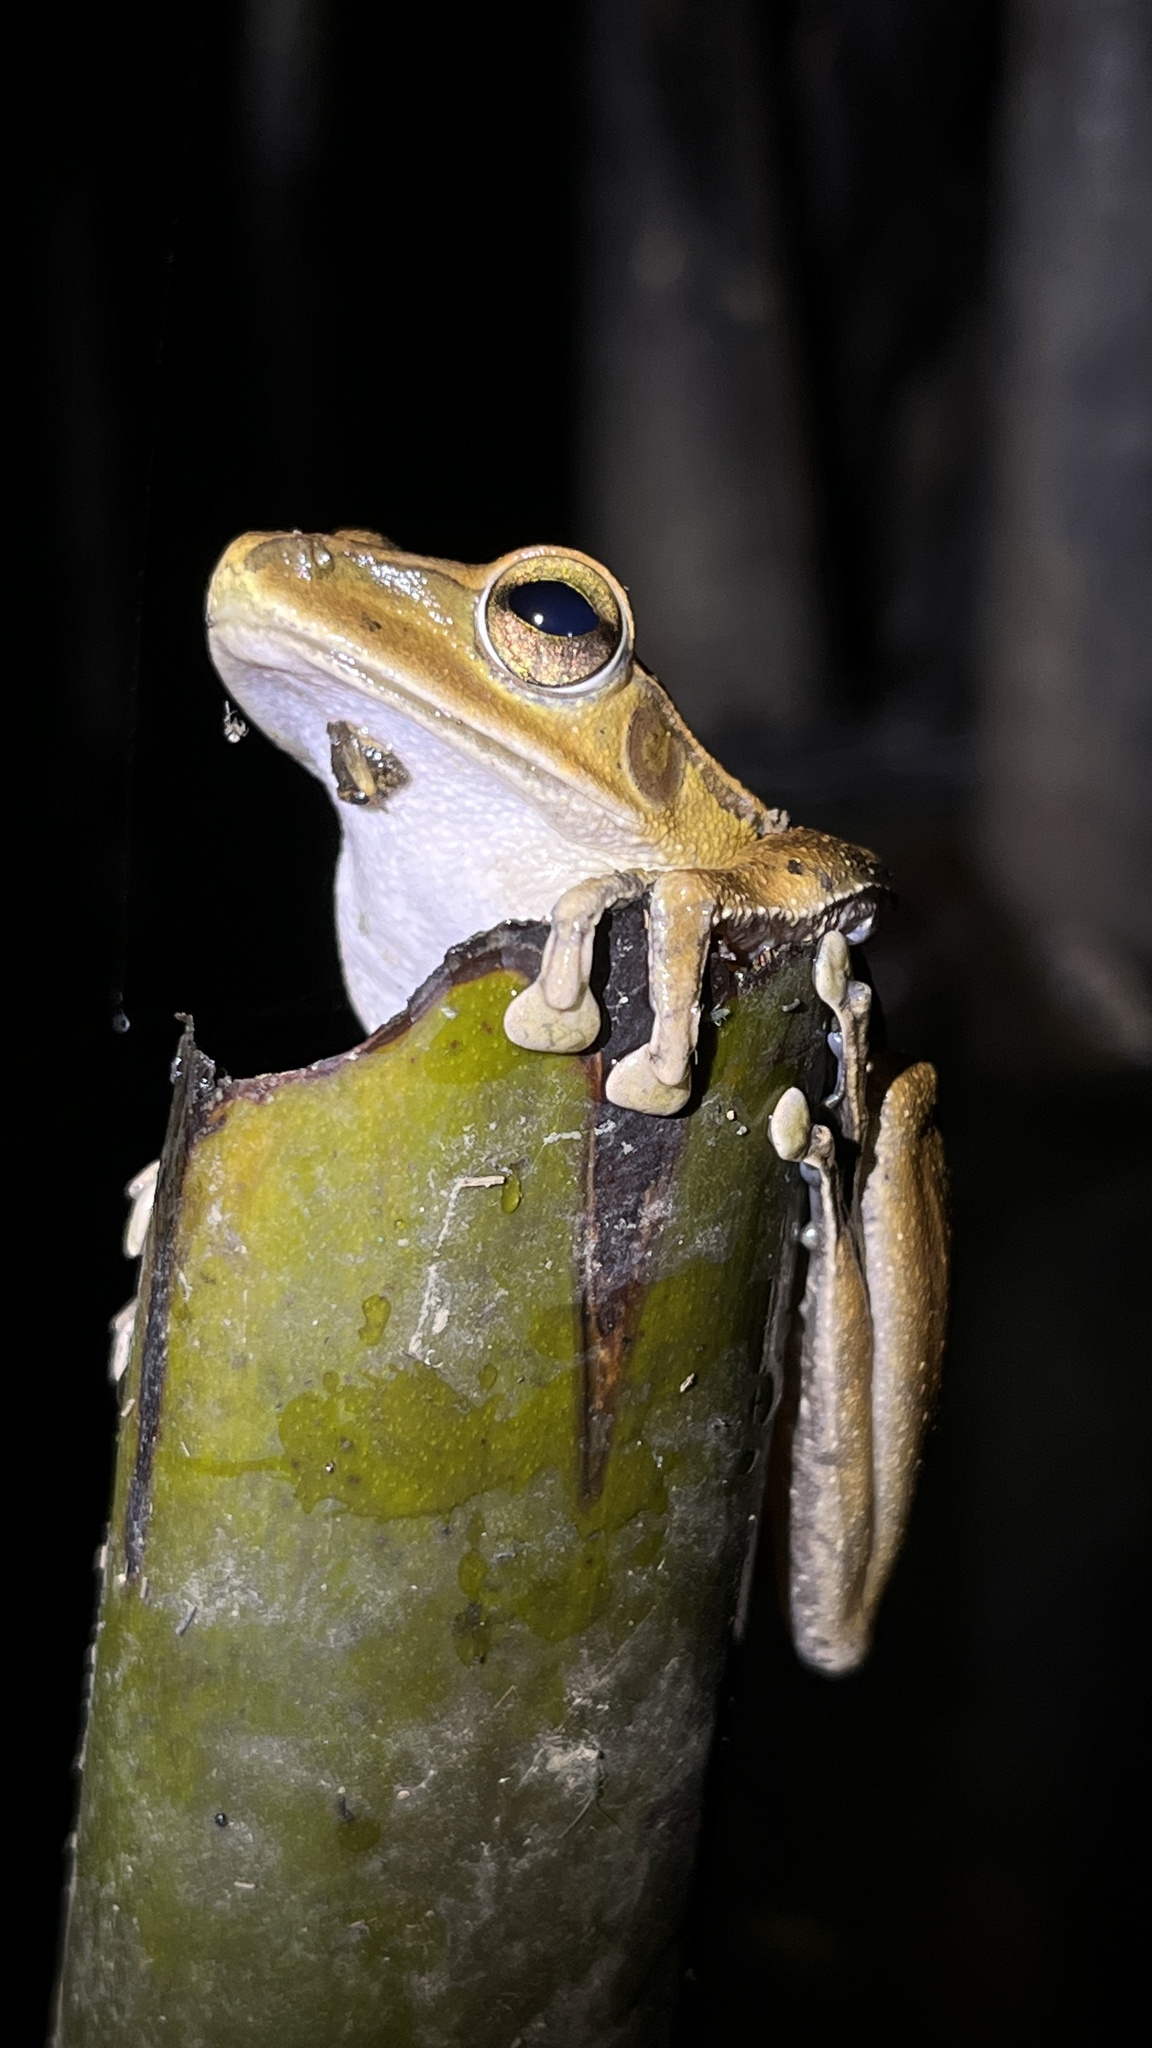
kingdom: Animalia
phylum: Chordata
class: Amphibia
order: Anura
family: Rhacophoridae
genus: Polypedates
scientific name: Polypedates megacephalus
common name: Hong kong whipping frog
